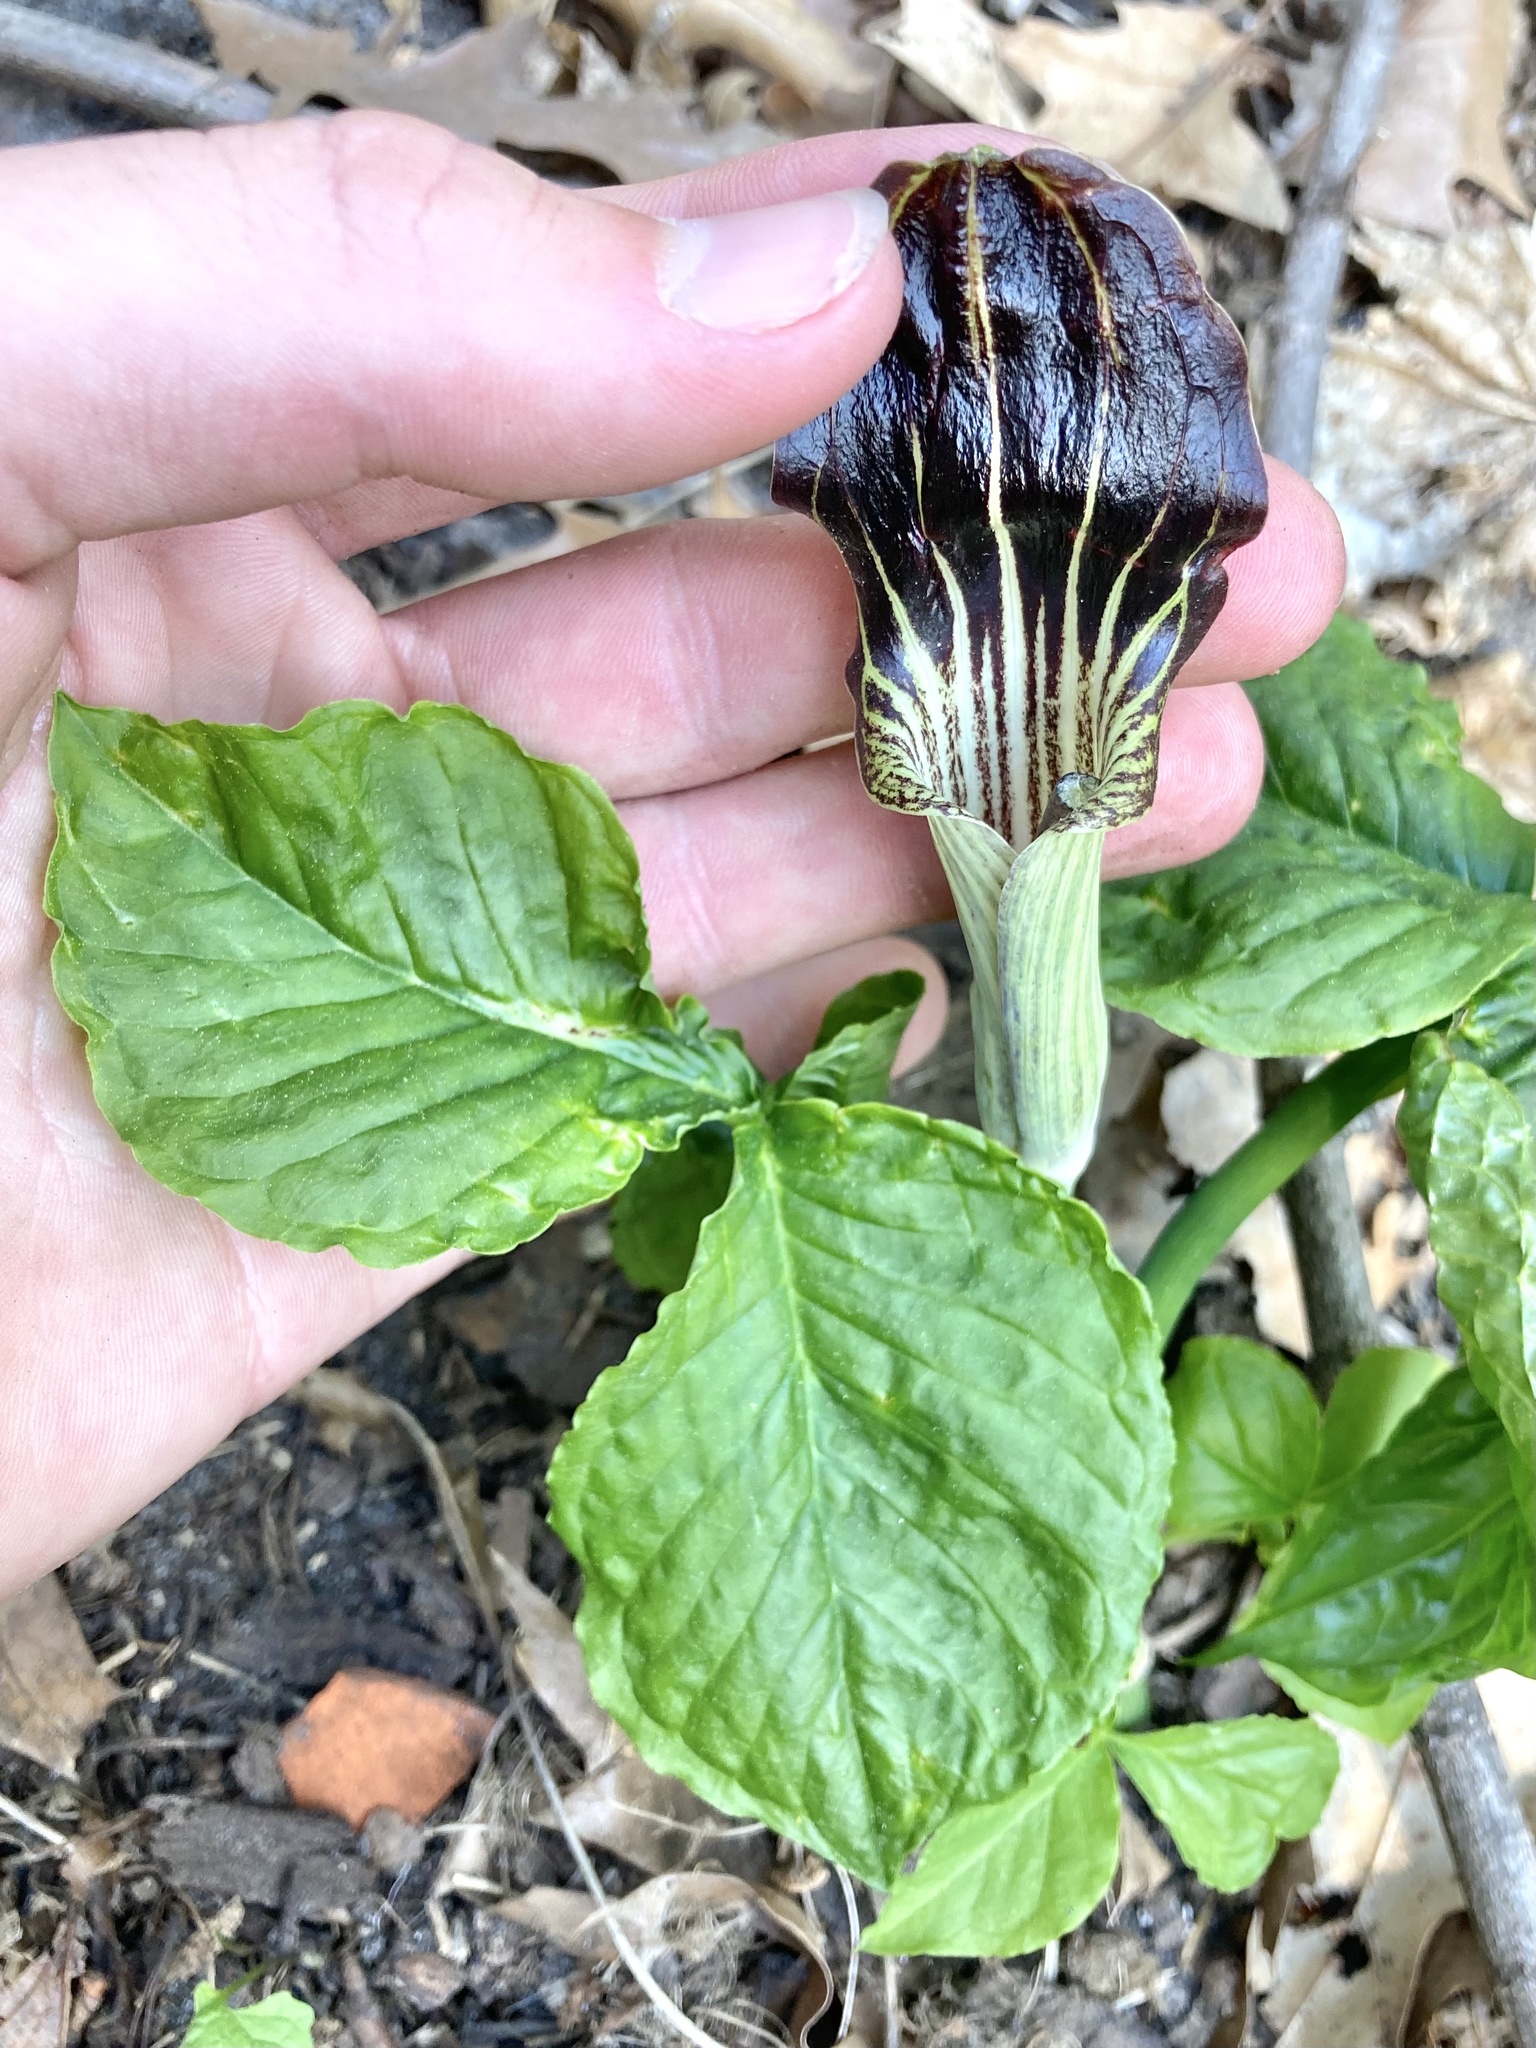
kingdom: Plantae
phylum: Tracheophyta
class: Liliopsida
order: Alismatales
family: Araceae
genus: Arisaema
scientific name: Arisaema triphyllum
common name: Jack-in-the-pulpit
